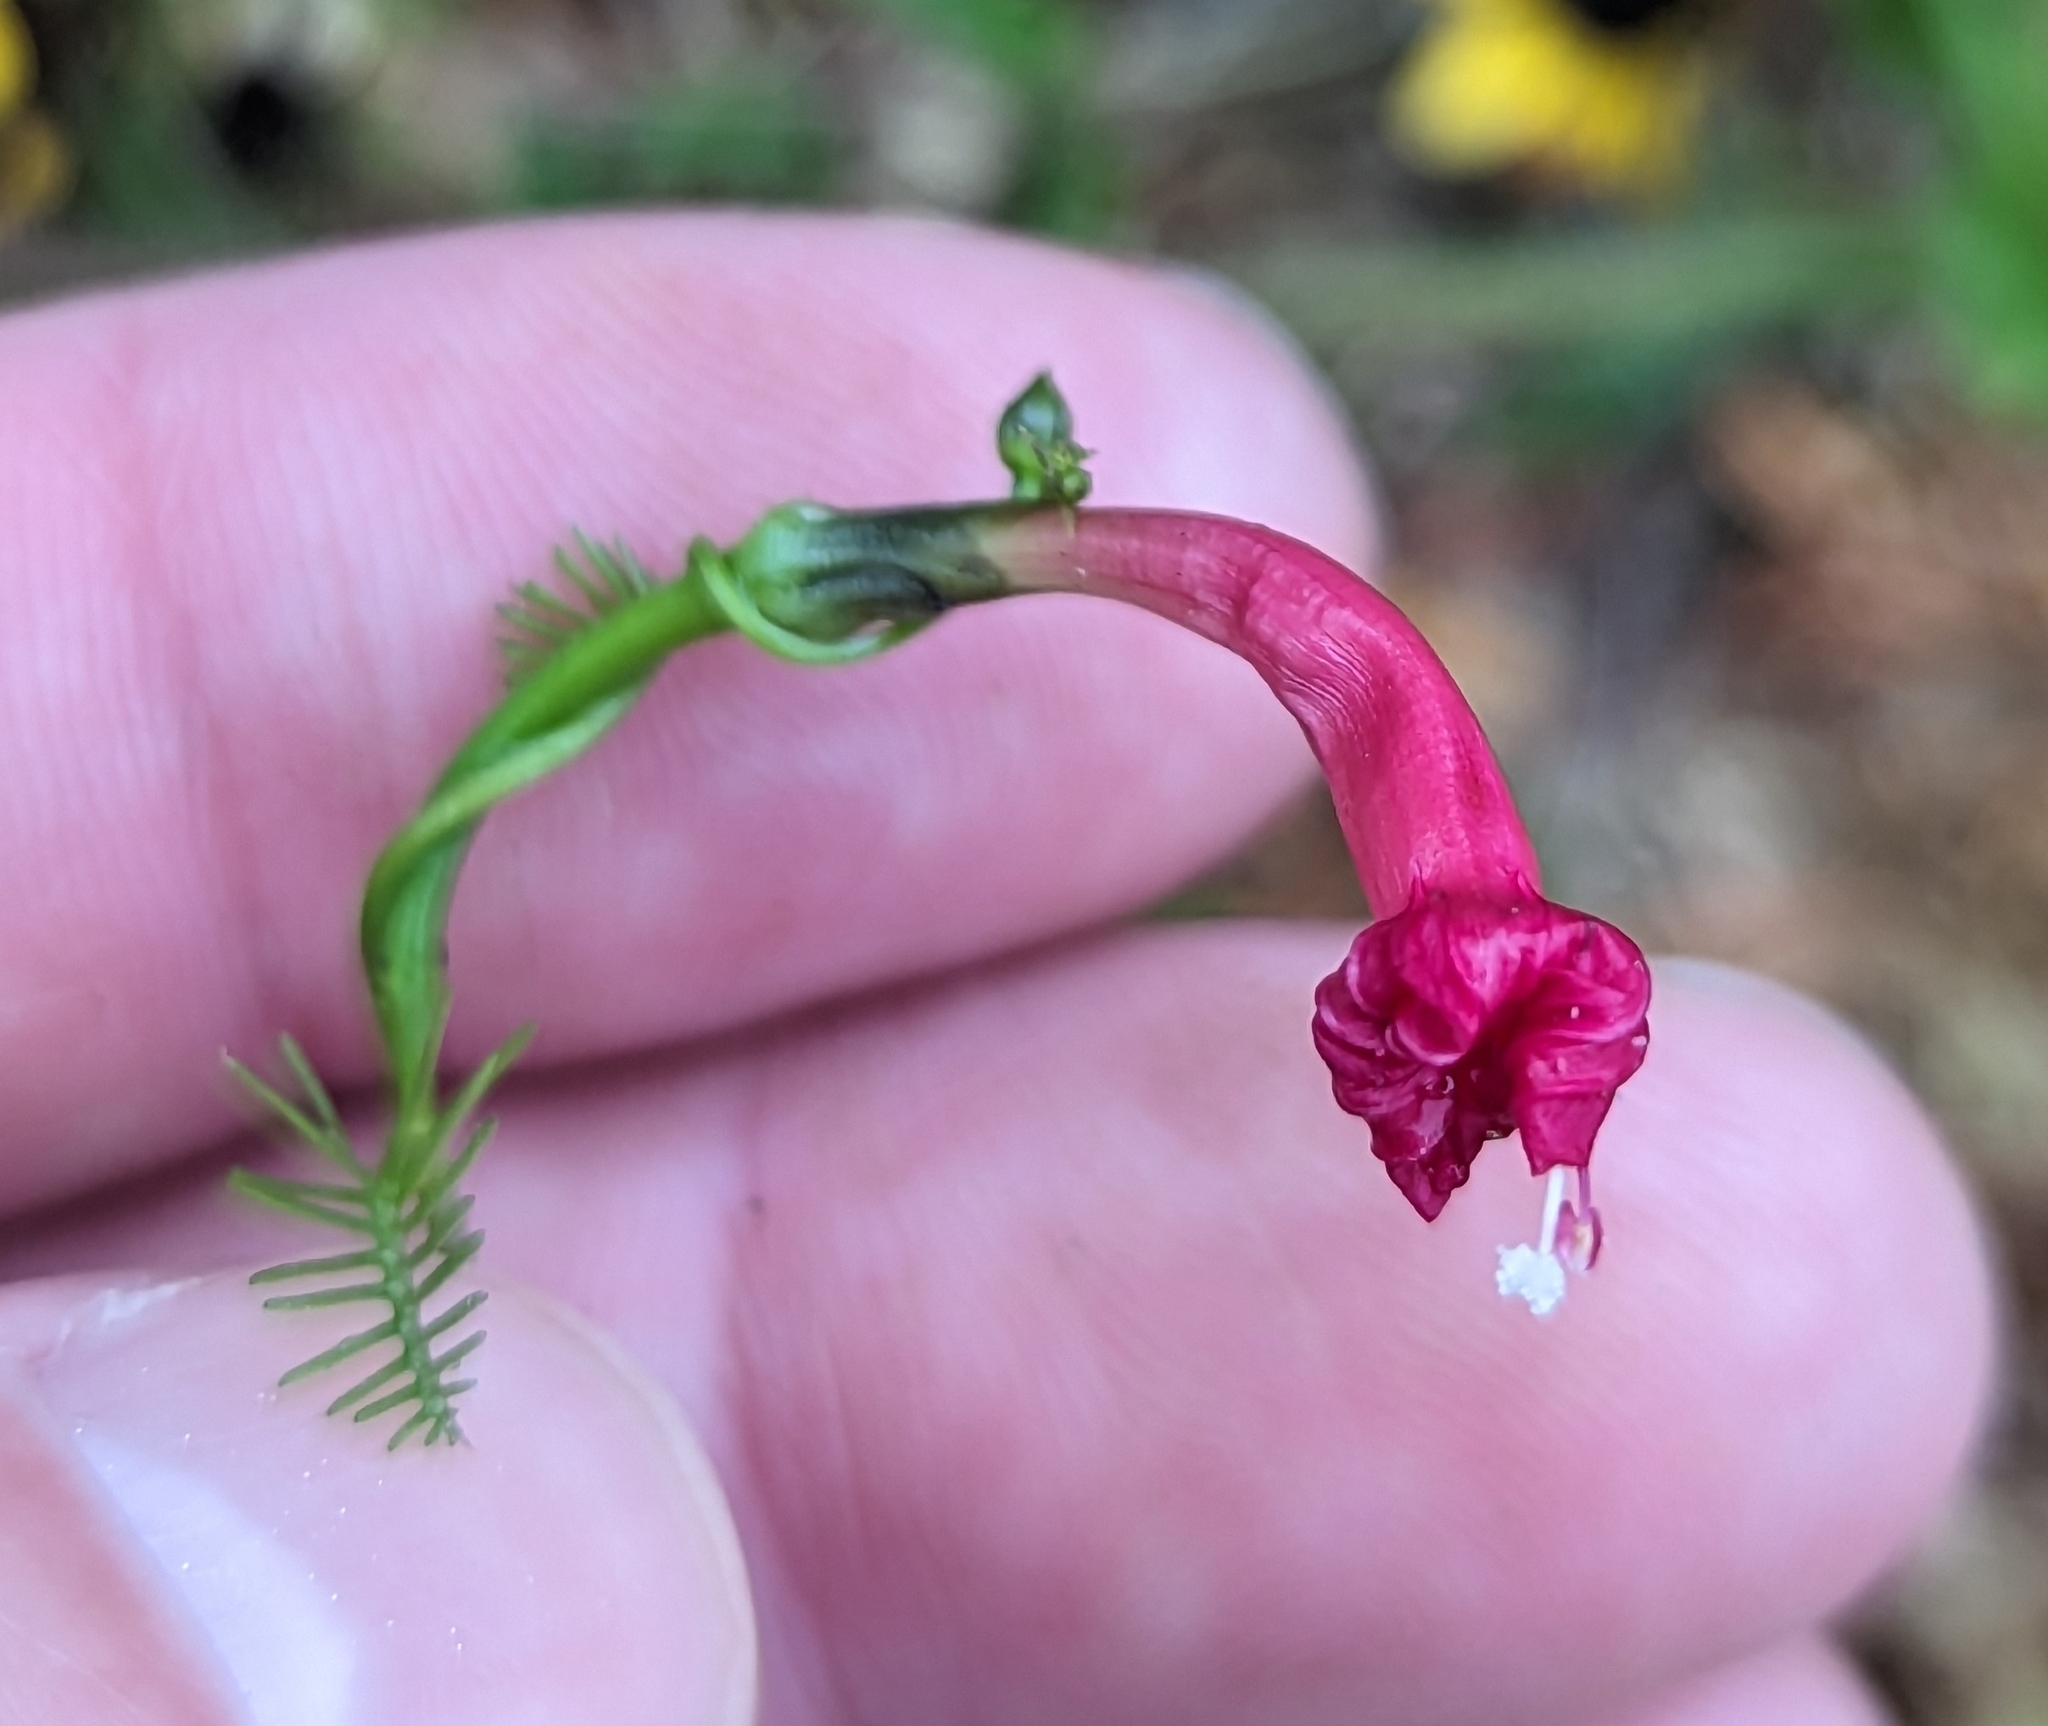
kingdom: Plantae
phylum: Tracheophyta
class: Magnoliopsida
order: Solanales
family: Convolvulaceae
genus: Ipomoea
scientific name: Ipomoea quamoclit
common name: Cypress vine
